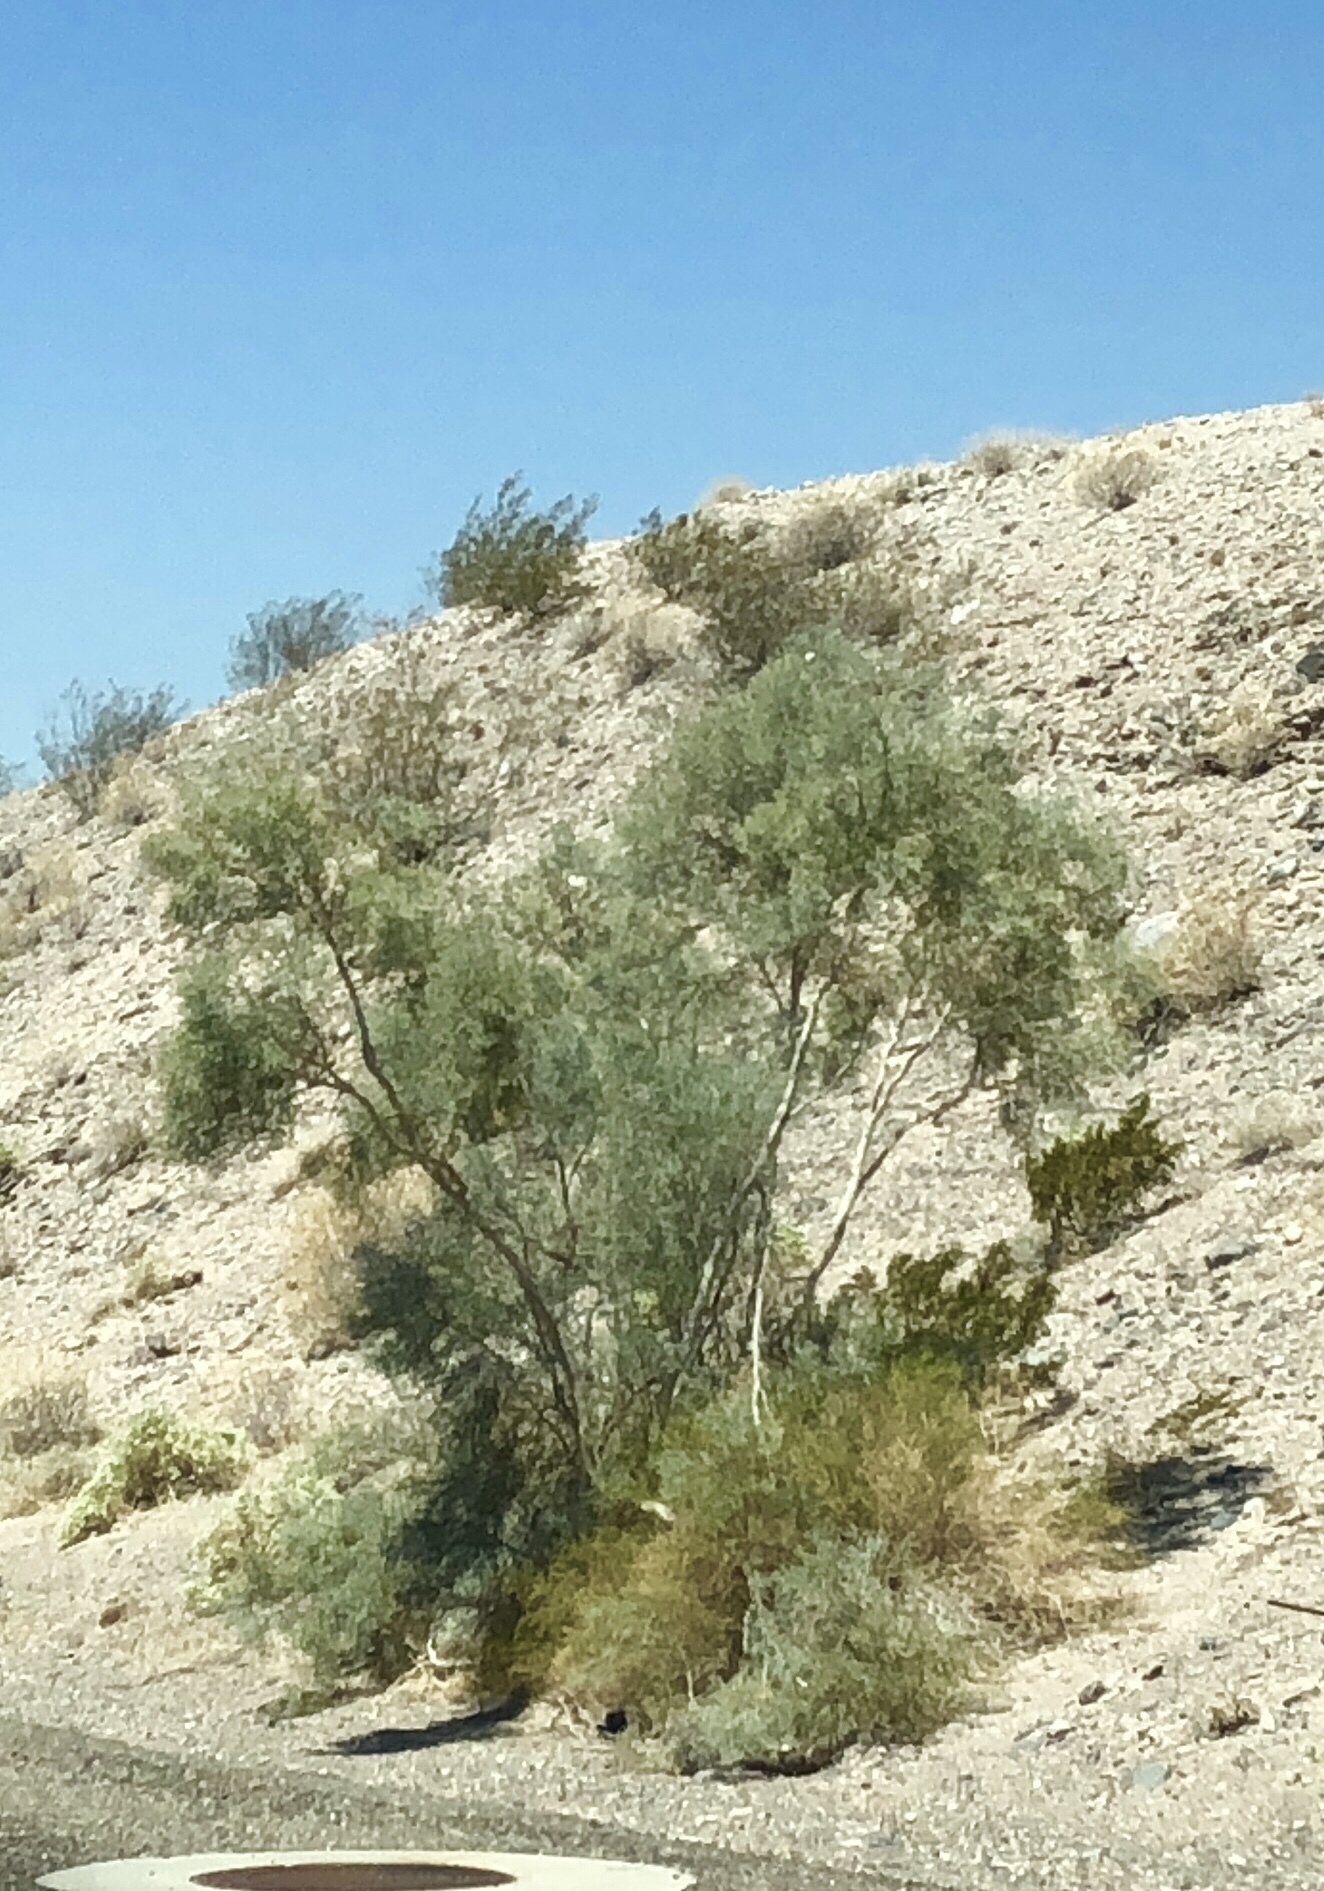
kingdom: Plantae
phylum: Tracheophyta
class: Magnoliopsida
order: Fabales
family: Fabaceae
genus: Psorothamnus
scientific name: Psorothamnus spinosus
